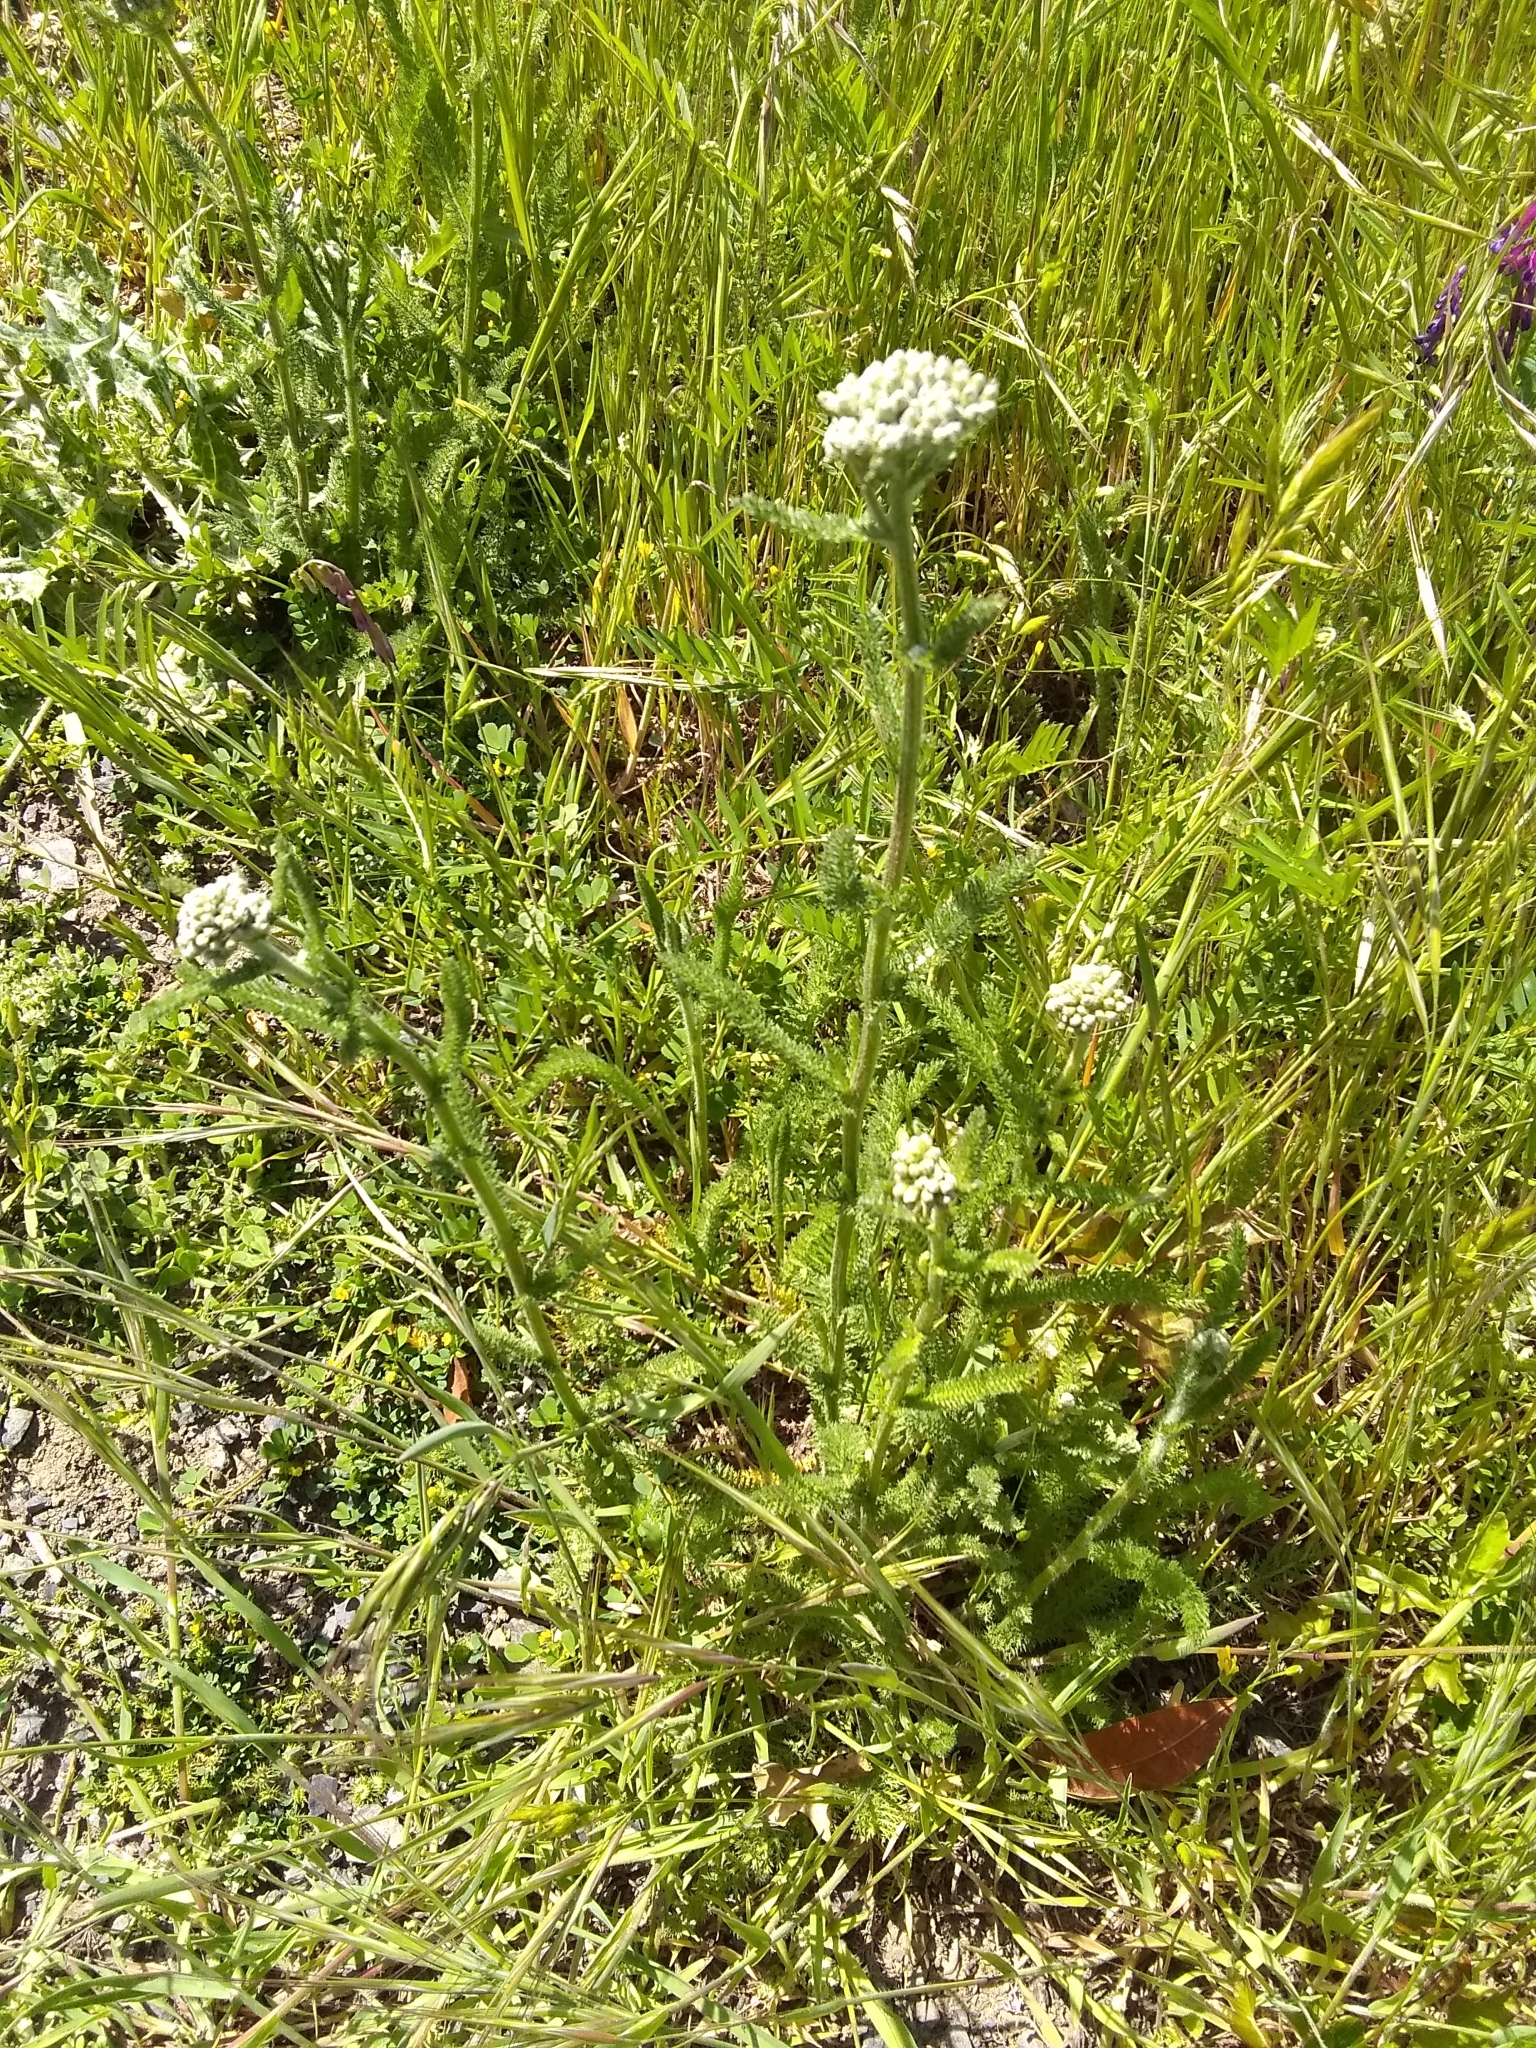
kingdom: Plantae
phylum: Tracheophyta
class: Magnoliopsida
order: Asterales
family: Asteraceae
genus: Achillea
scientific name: Achillea millefolium
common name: Yarrow
